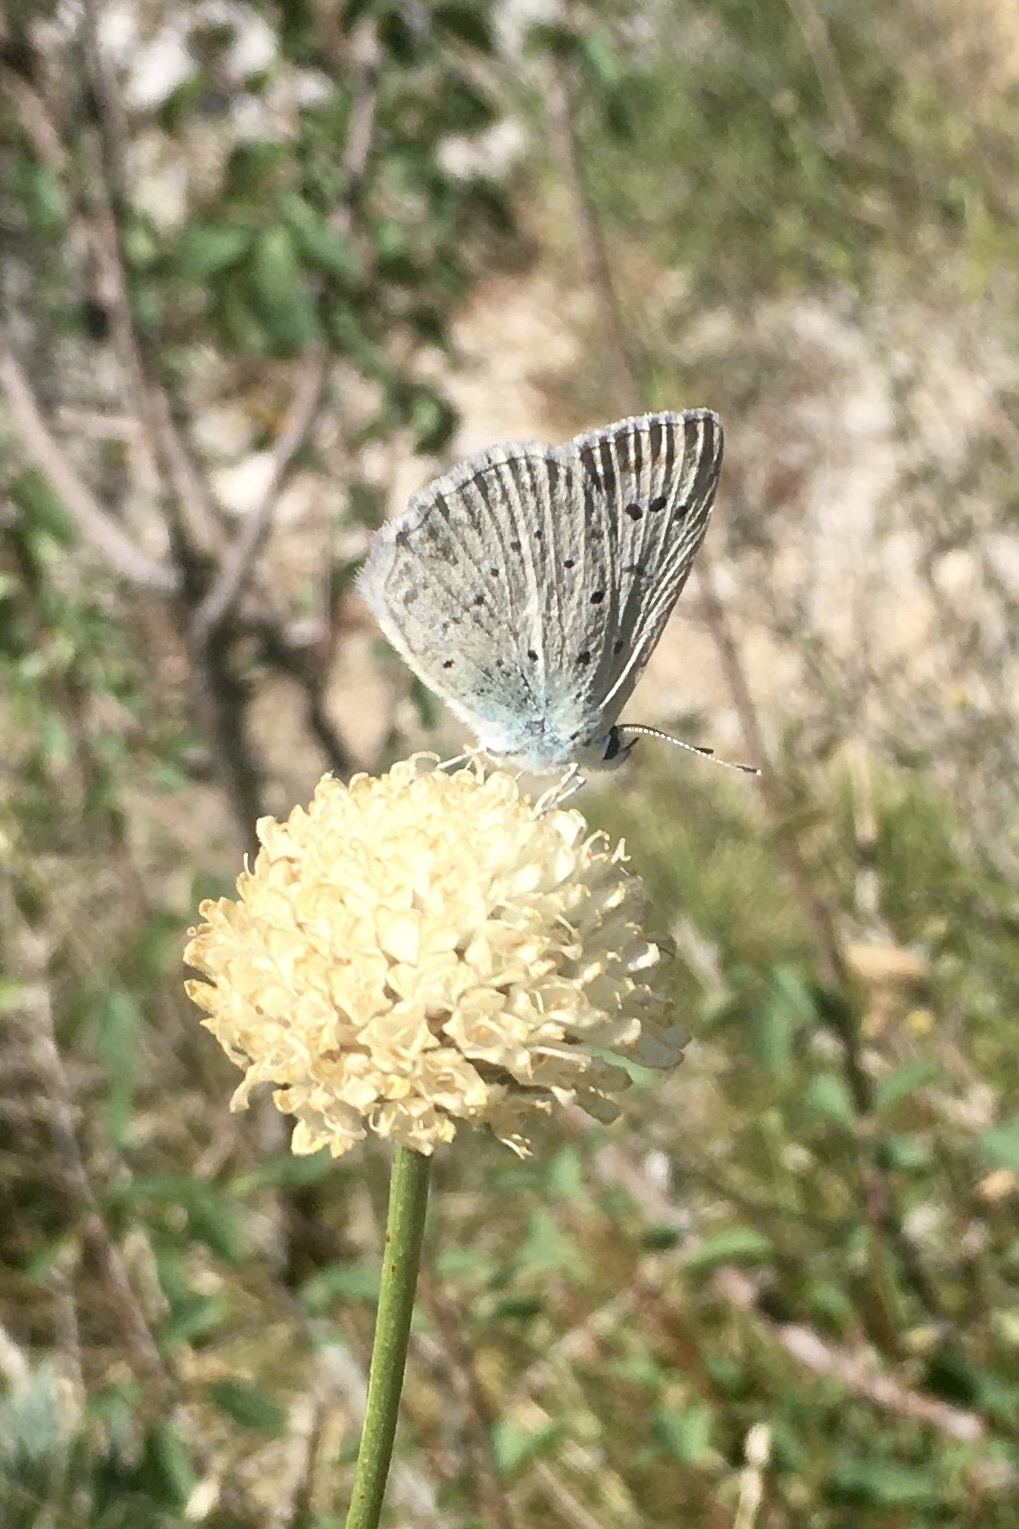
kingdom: Animalia
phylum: Arthropoda
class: Insecta
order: Lepidoptera
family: Lycaenidae
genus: Polyommatus
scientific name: Polyommatus daphnis
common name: Meleager's blue
